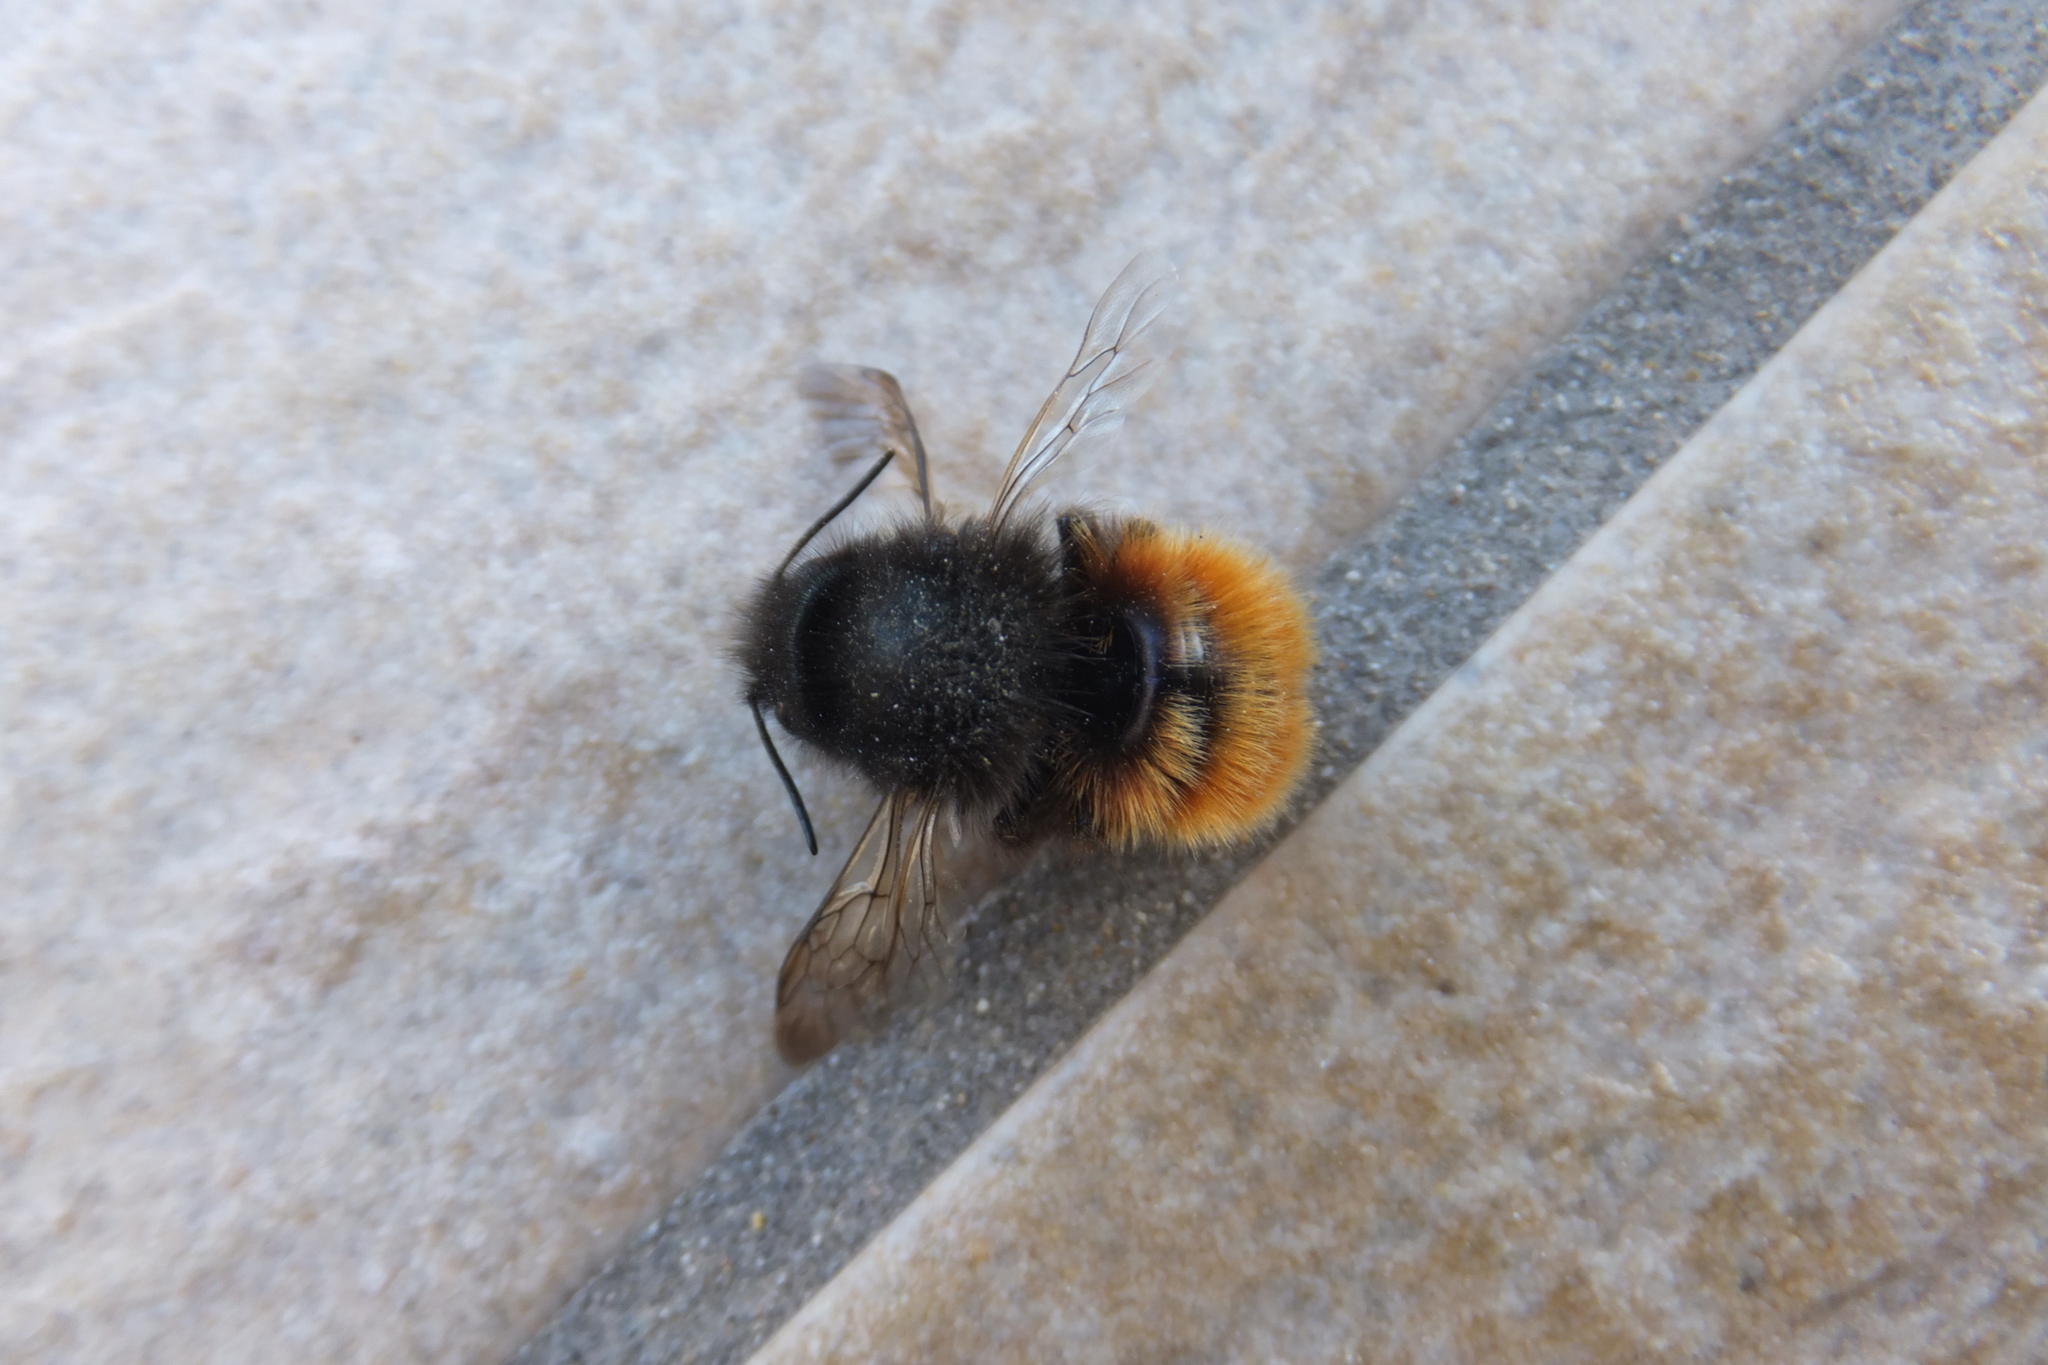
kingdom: Animalia
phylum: Arthropoda
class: Insecta
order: Hymenoptera
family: Megachilidae
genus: Osmia
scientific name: Osmia cornuta
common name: Mason bee
